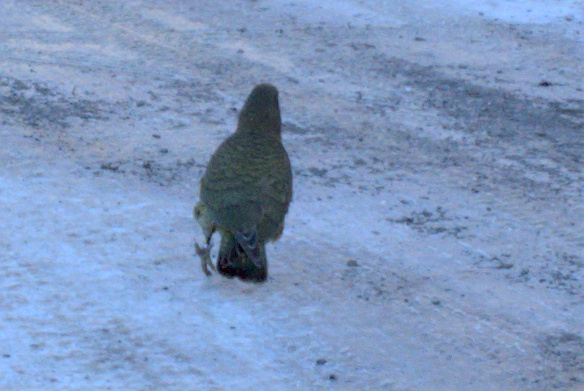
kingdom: Animalia
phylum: Chordata
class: Aves
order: Psittaciformes
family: Psittacidae
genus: Nestor
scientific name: Nestor notabilis
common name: Kea
